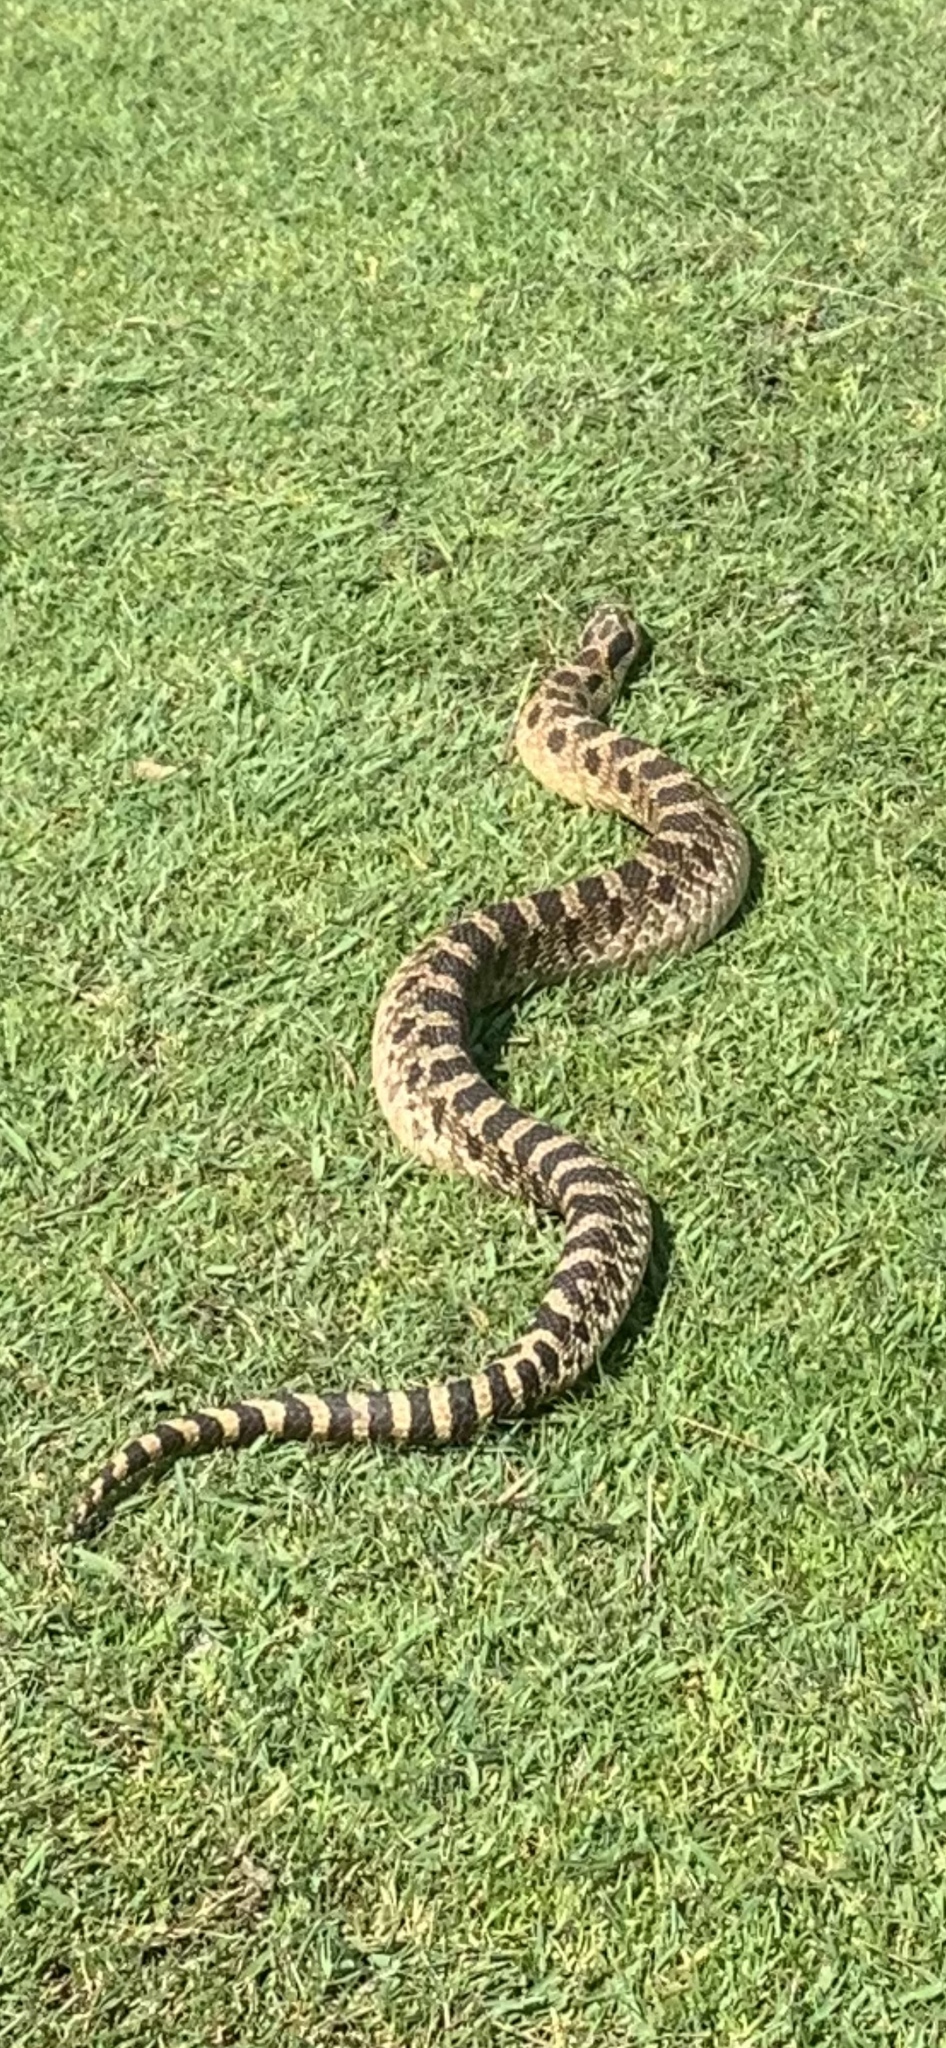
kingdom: Animalia
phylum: Chordata
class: Squamata
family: Colubridae
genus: Heterodon
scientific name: Heterodon platirhinos
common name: Eastern hognose snake
